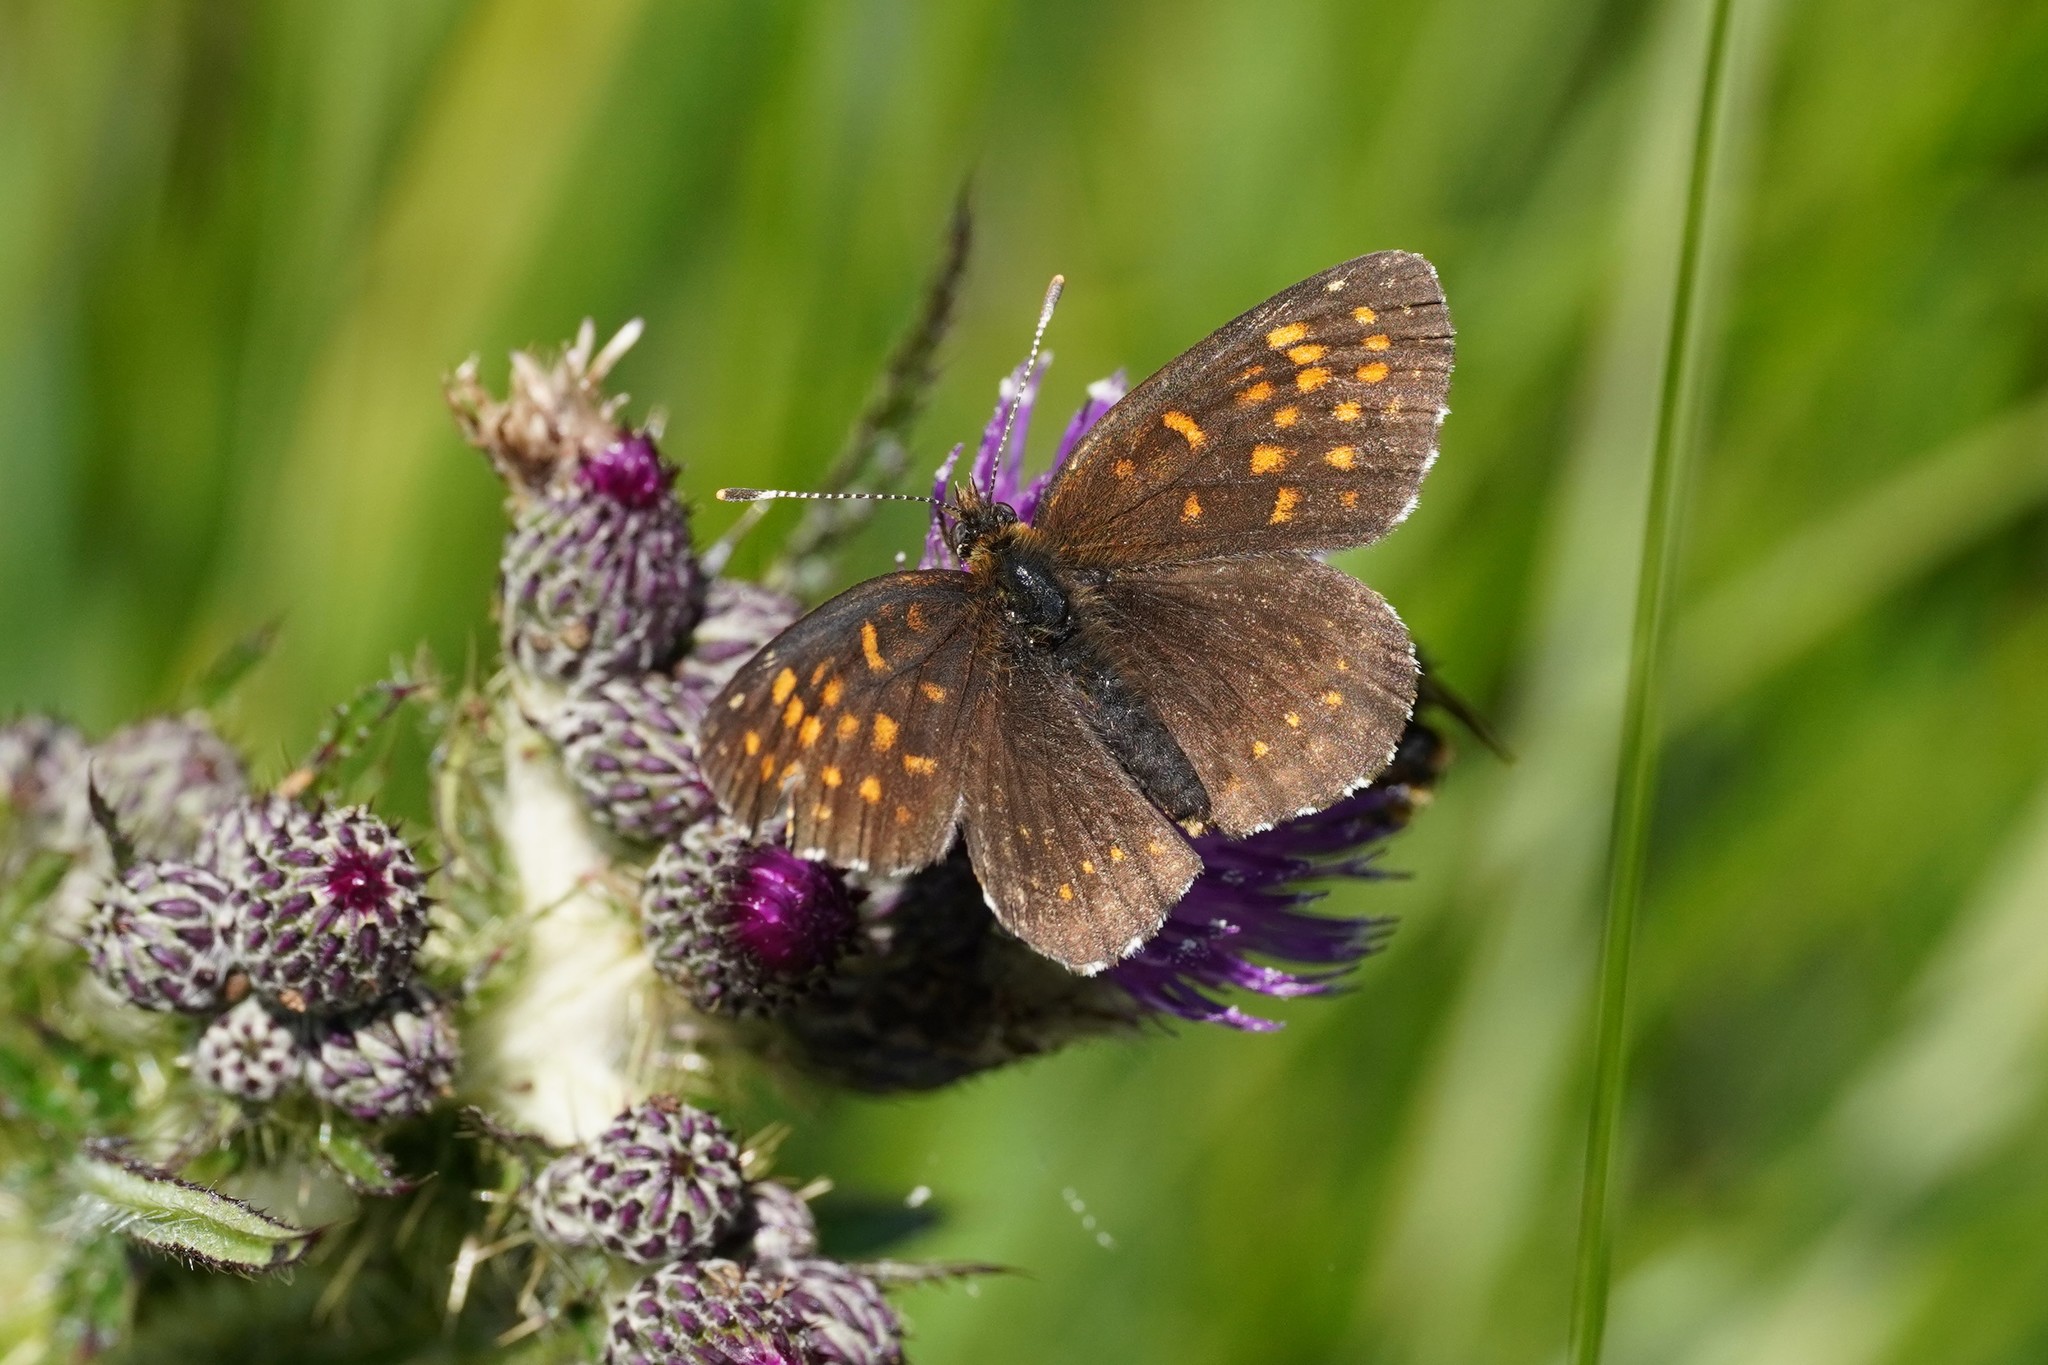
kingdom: Animalia
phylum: Arthropoda
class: Insecta
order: Lepidoptera
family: Nymphalidae
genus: Melitaea
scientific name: Melitaea diamina
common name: False heath fritillary
